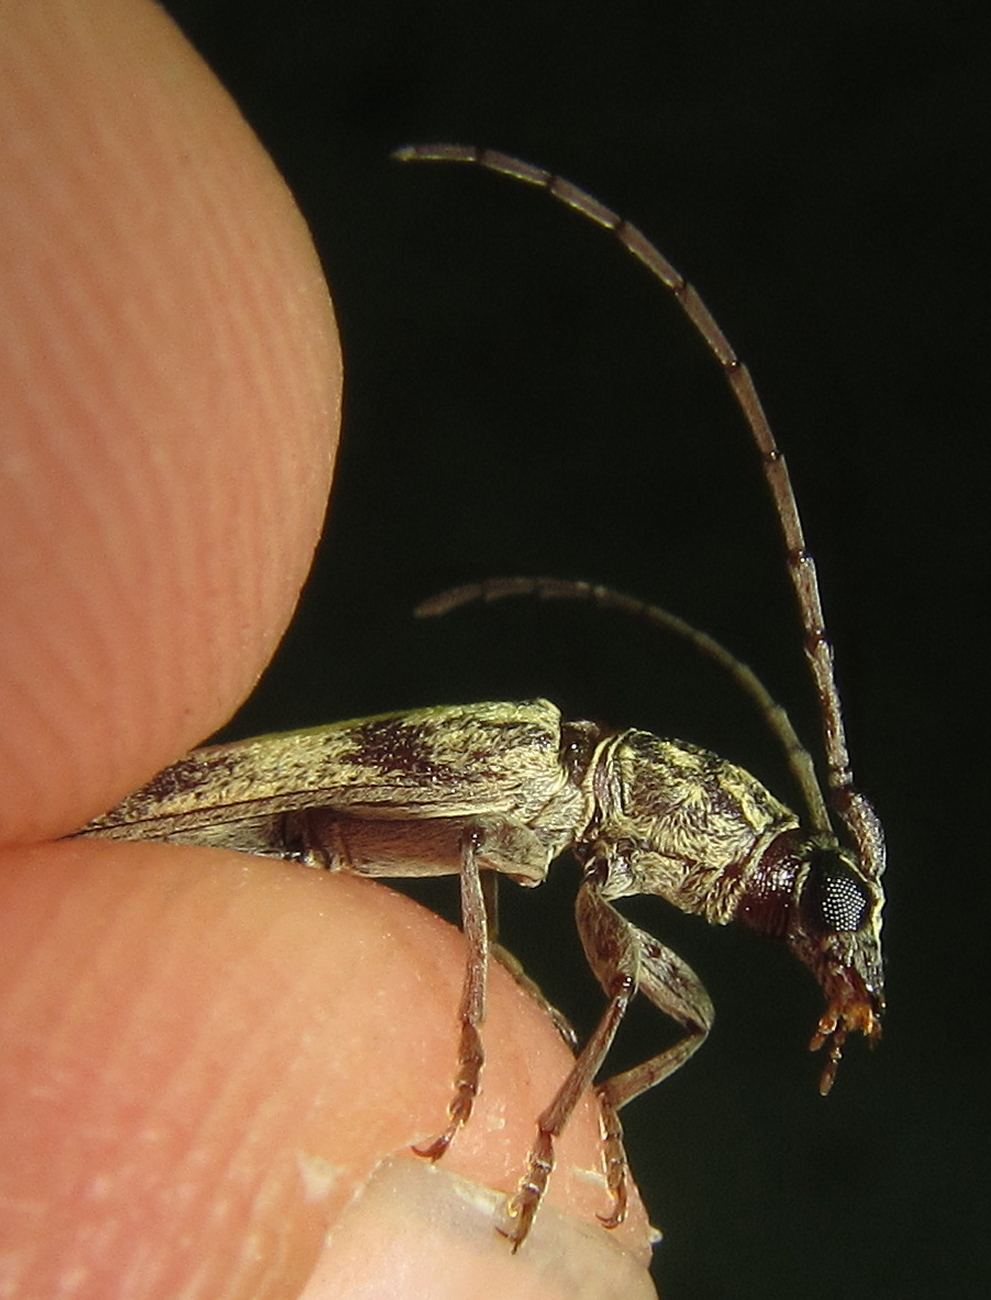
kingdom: Animalia
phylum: Arthropoda
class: Insecta
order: Coleoptera
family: Cerambycidae
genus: Dissaporus
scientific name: Dissaporus cylindricus
